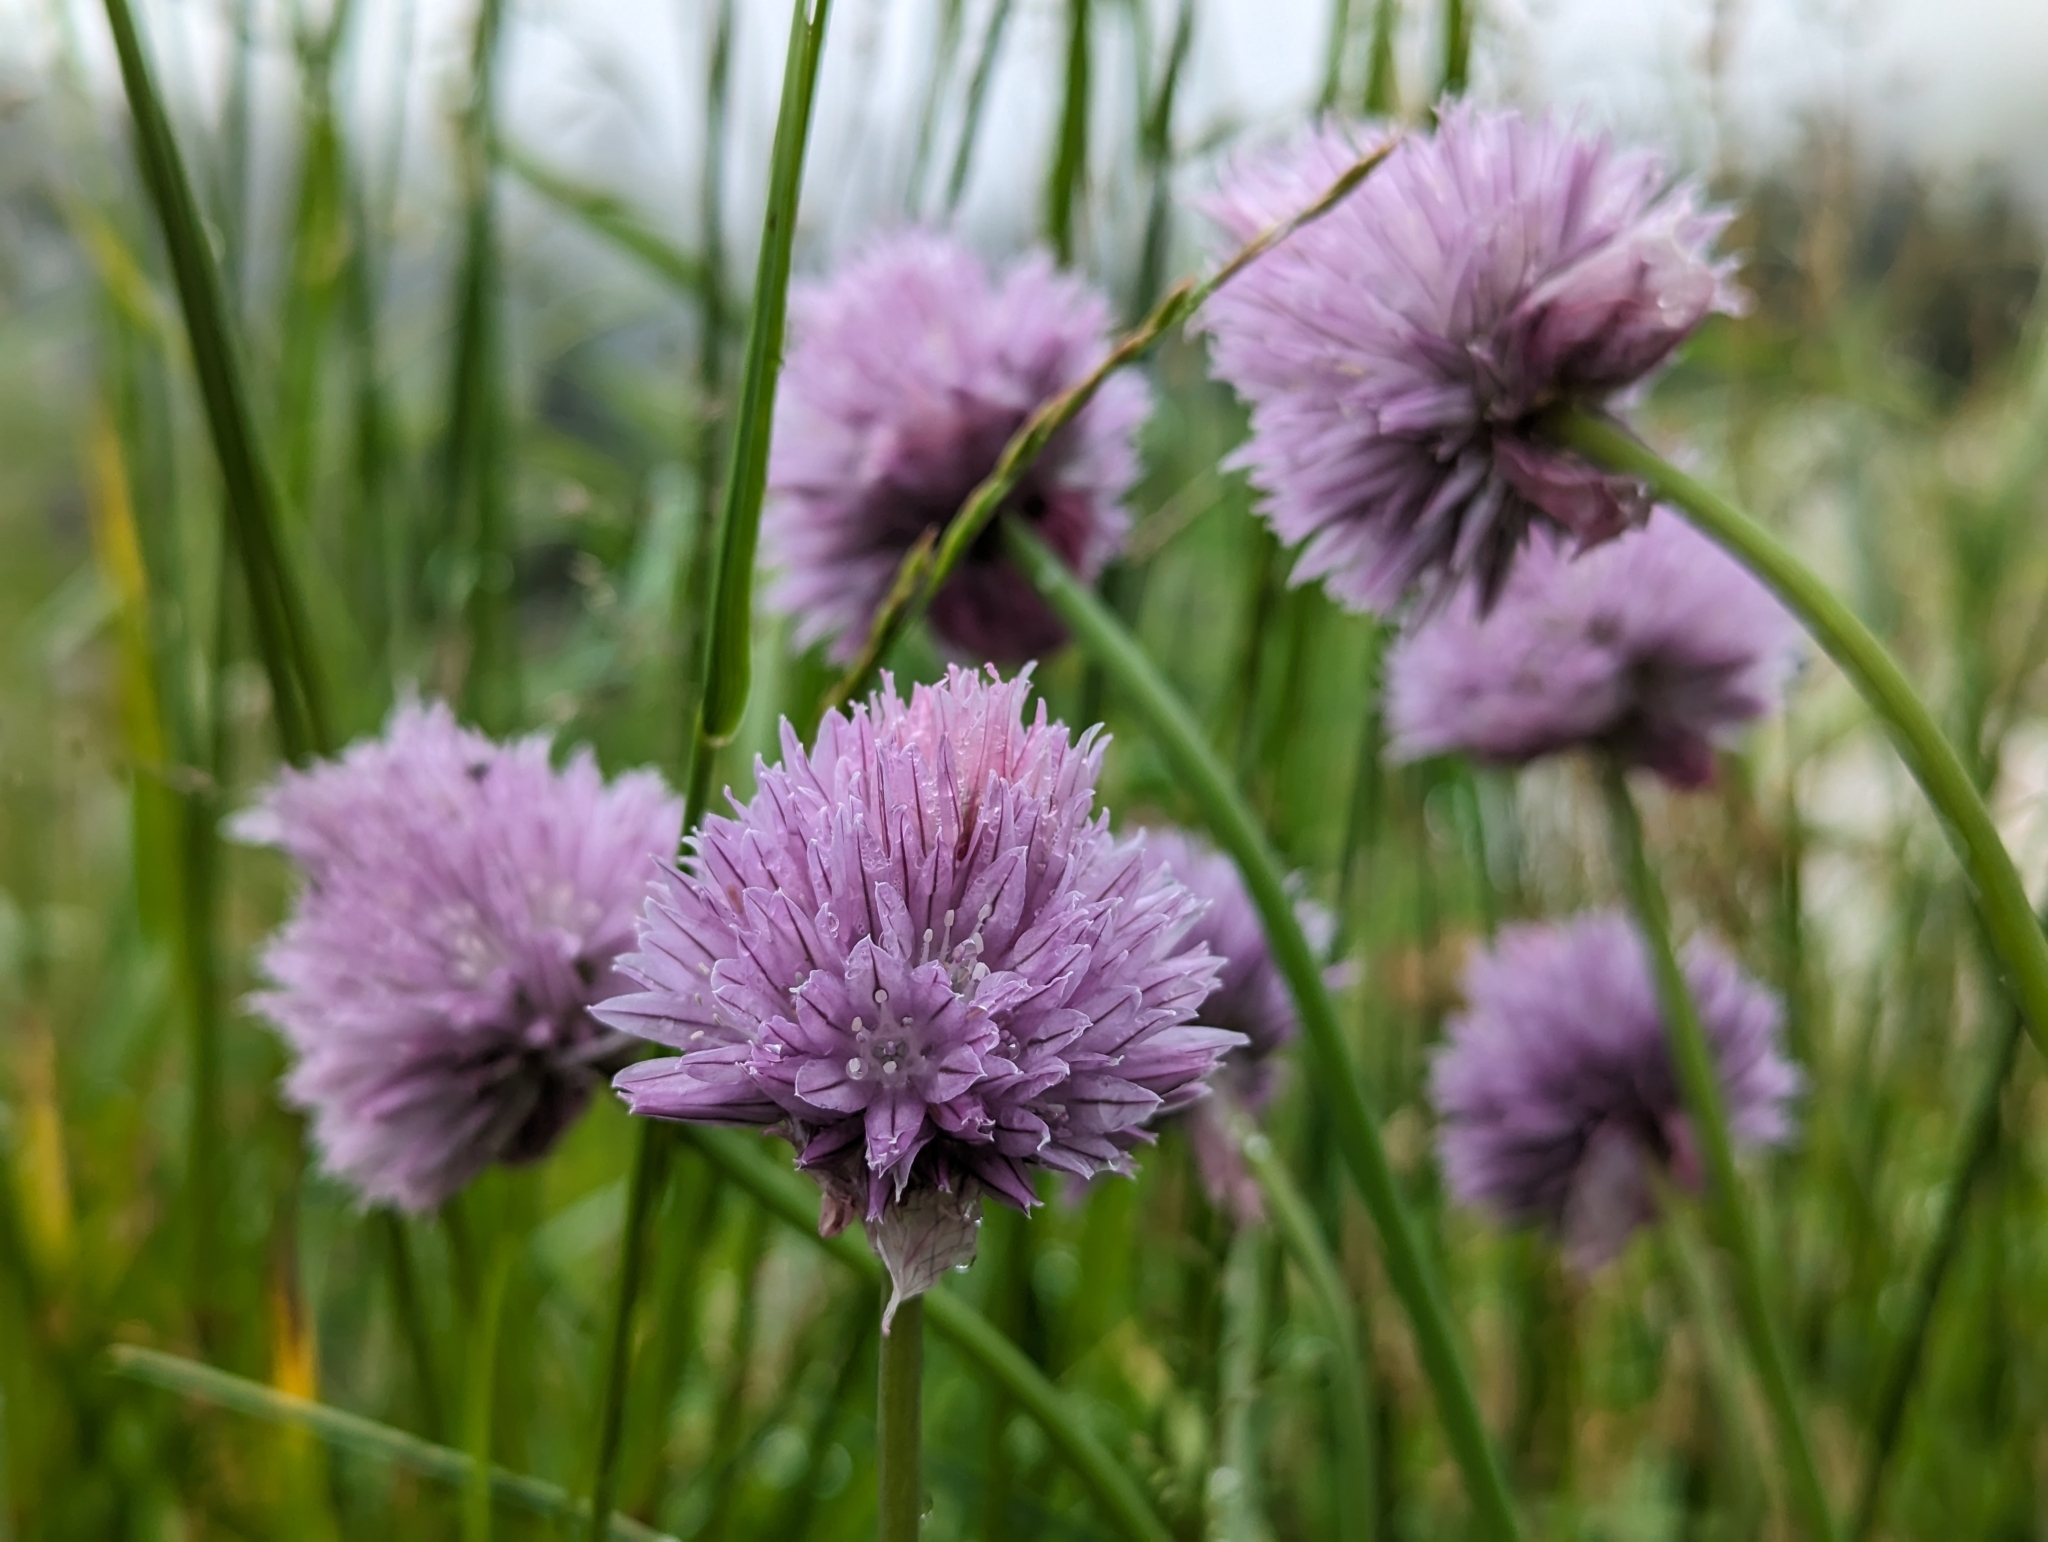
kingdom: Plantae
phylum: Tracheophyta
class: Liliopsida
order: Asparagales
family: Amaryllidaceae
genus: Allium
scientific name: Allium schoenoprasum
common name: Chives
